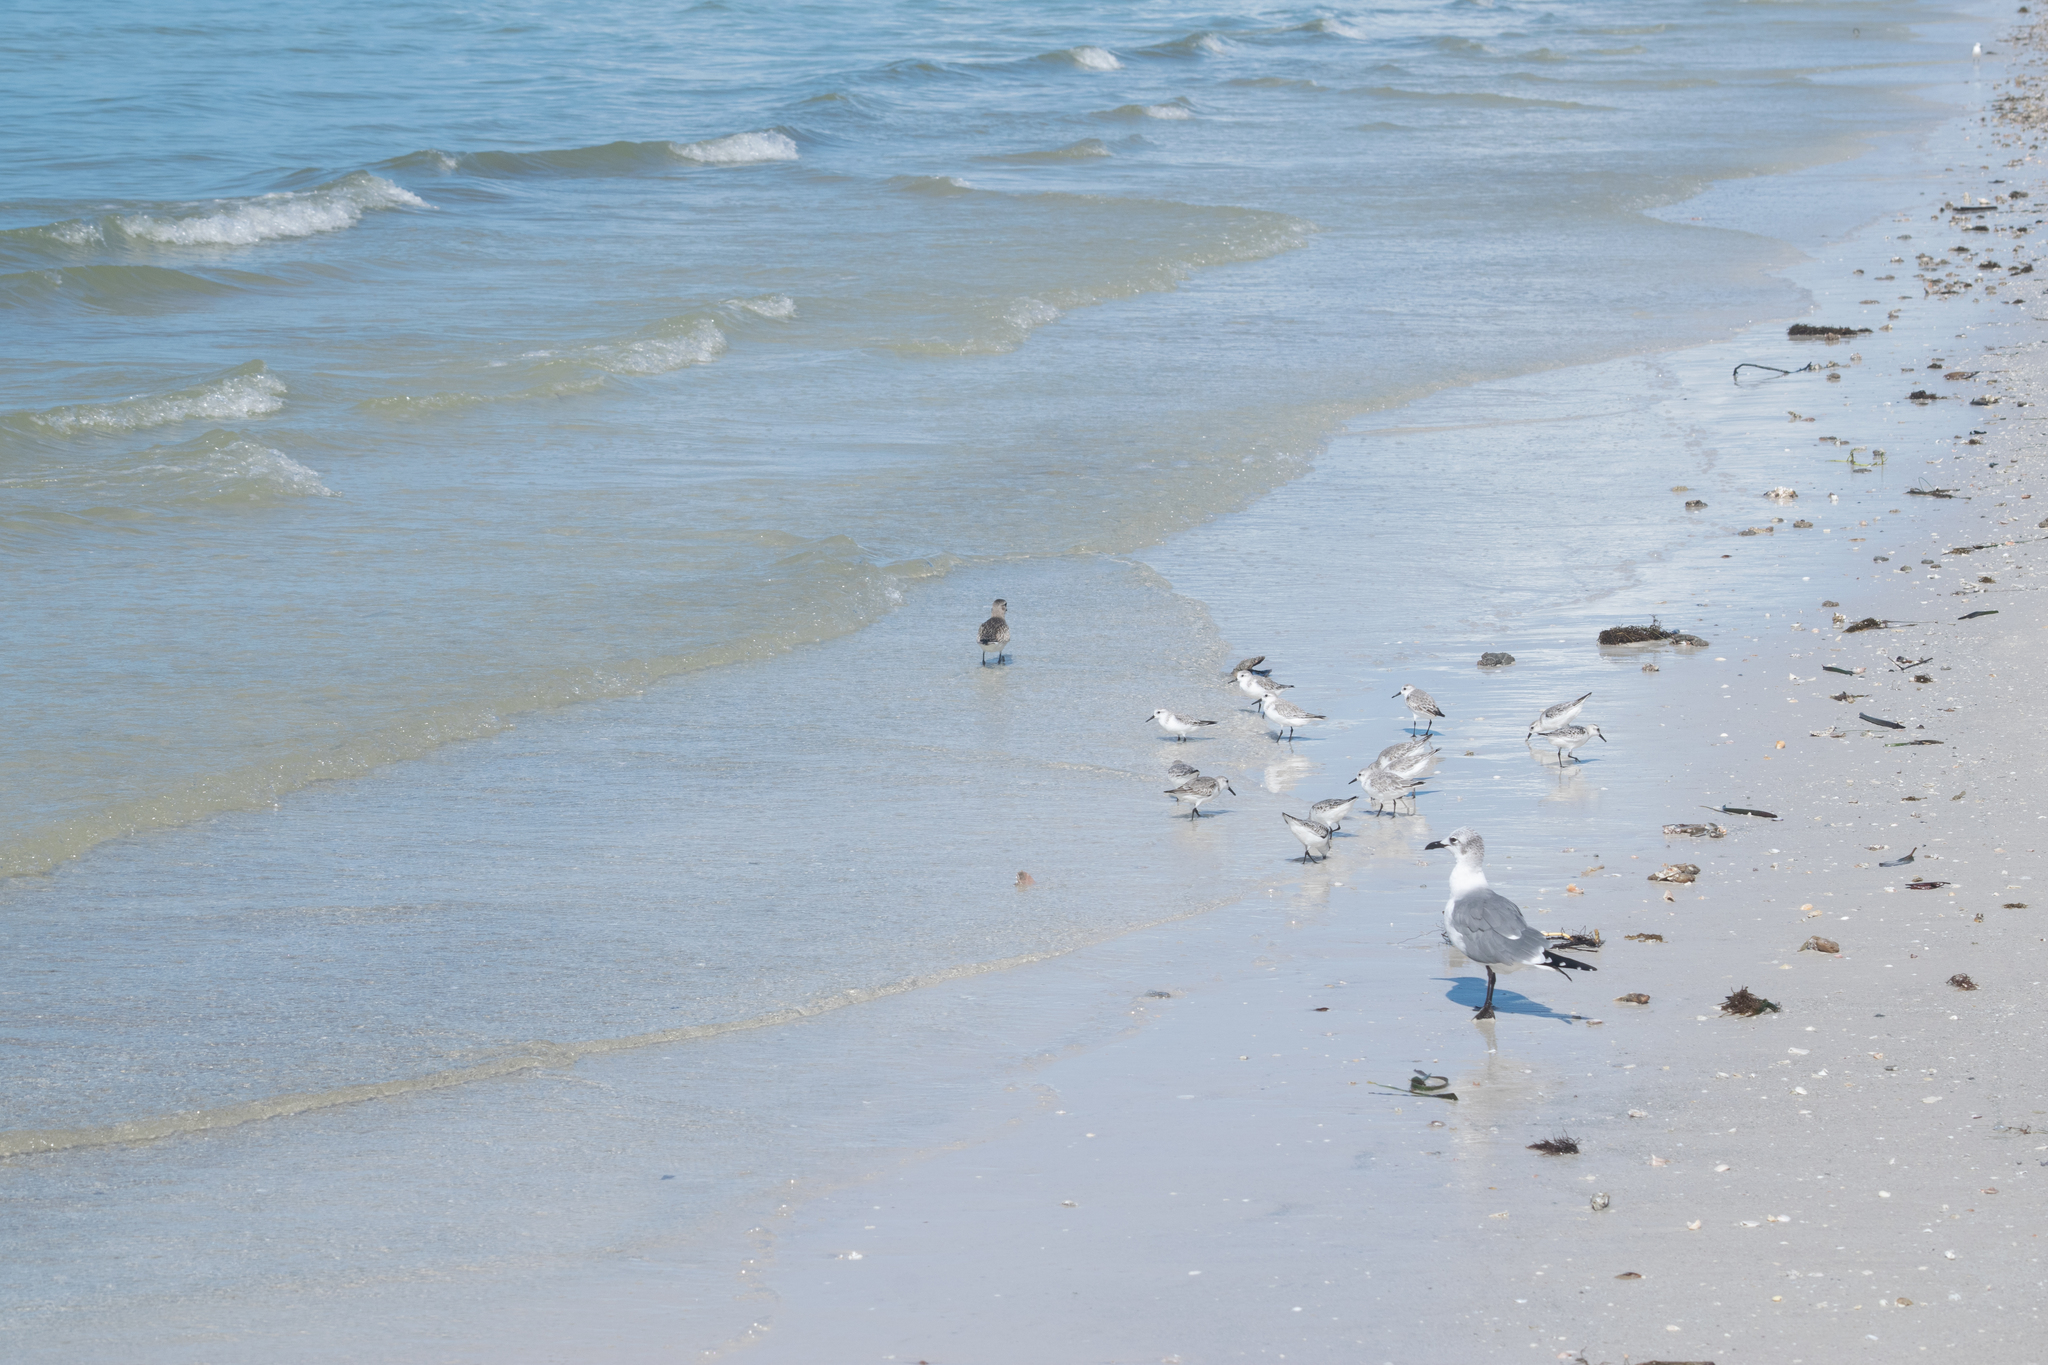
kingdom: Animalia
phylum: Chordata
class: Aves
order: Charadriiformes
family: Charadriidae
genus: Pluvialis
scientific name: Pluvialis squatarola
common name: Grey plover
